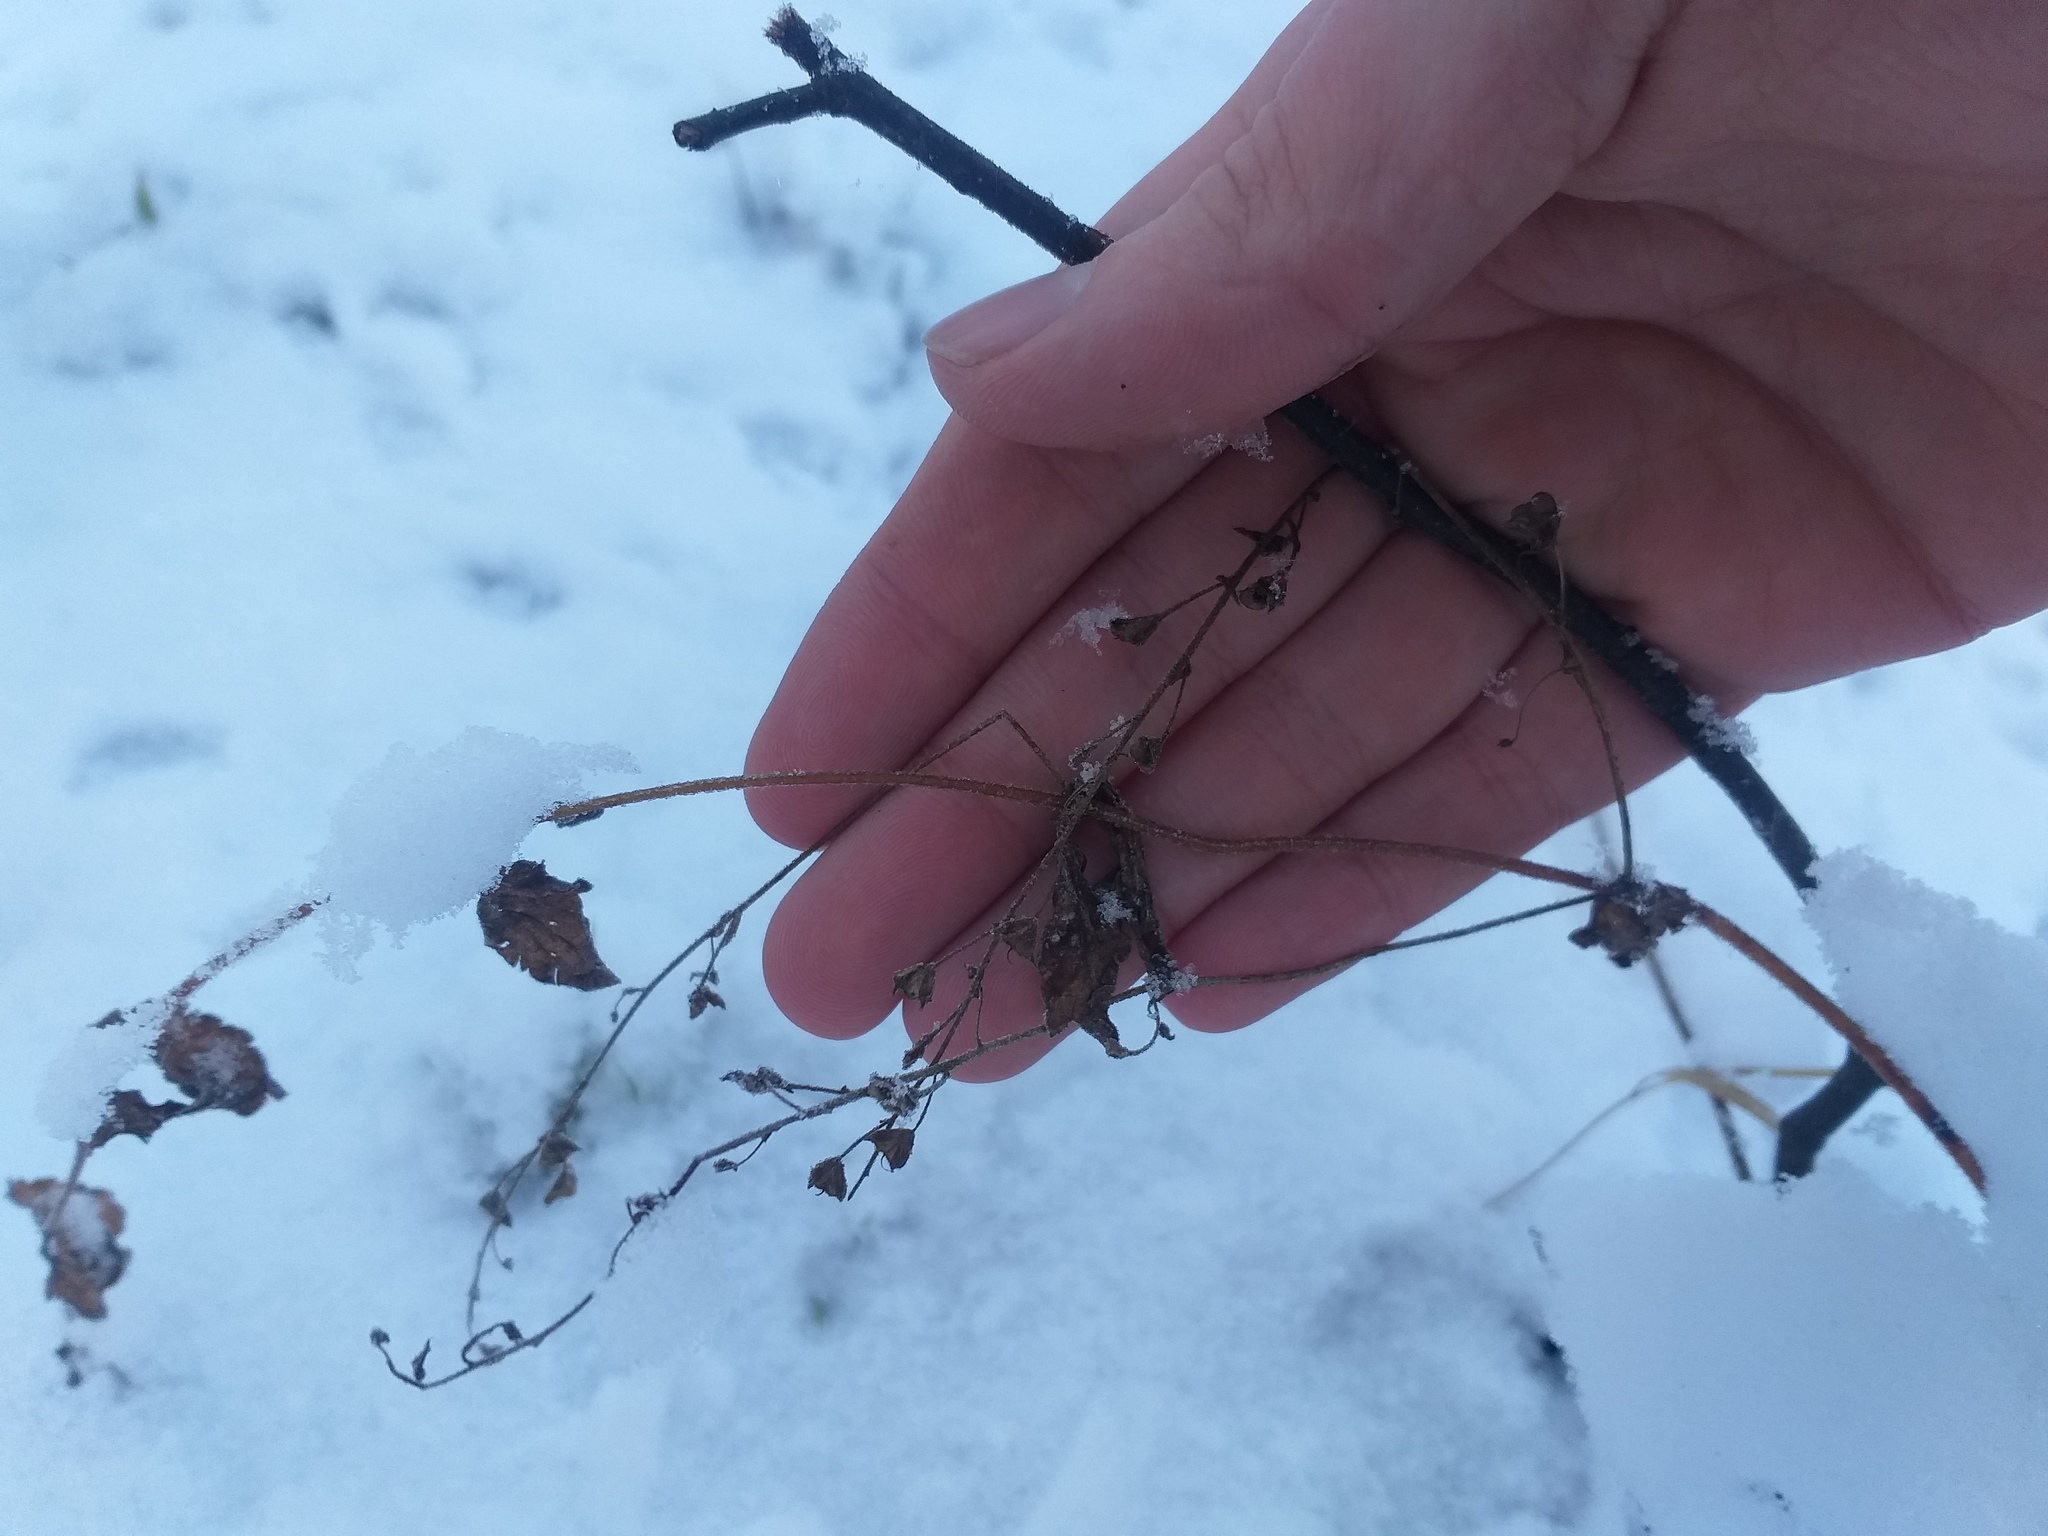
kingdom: Plantae
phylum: Tracheophyta
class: Magnoliopsida
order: Lamiales
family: Plantaginaceae
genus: Veronica
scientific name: Veronica chamaedrys
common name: Germander speedwell
